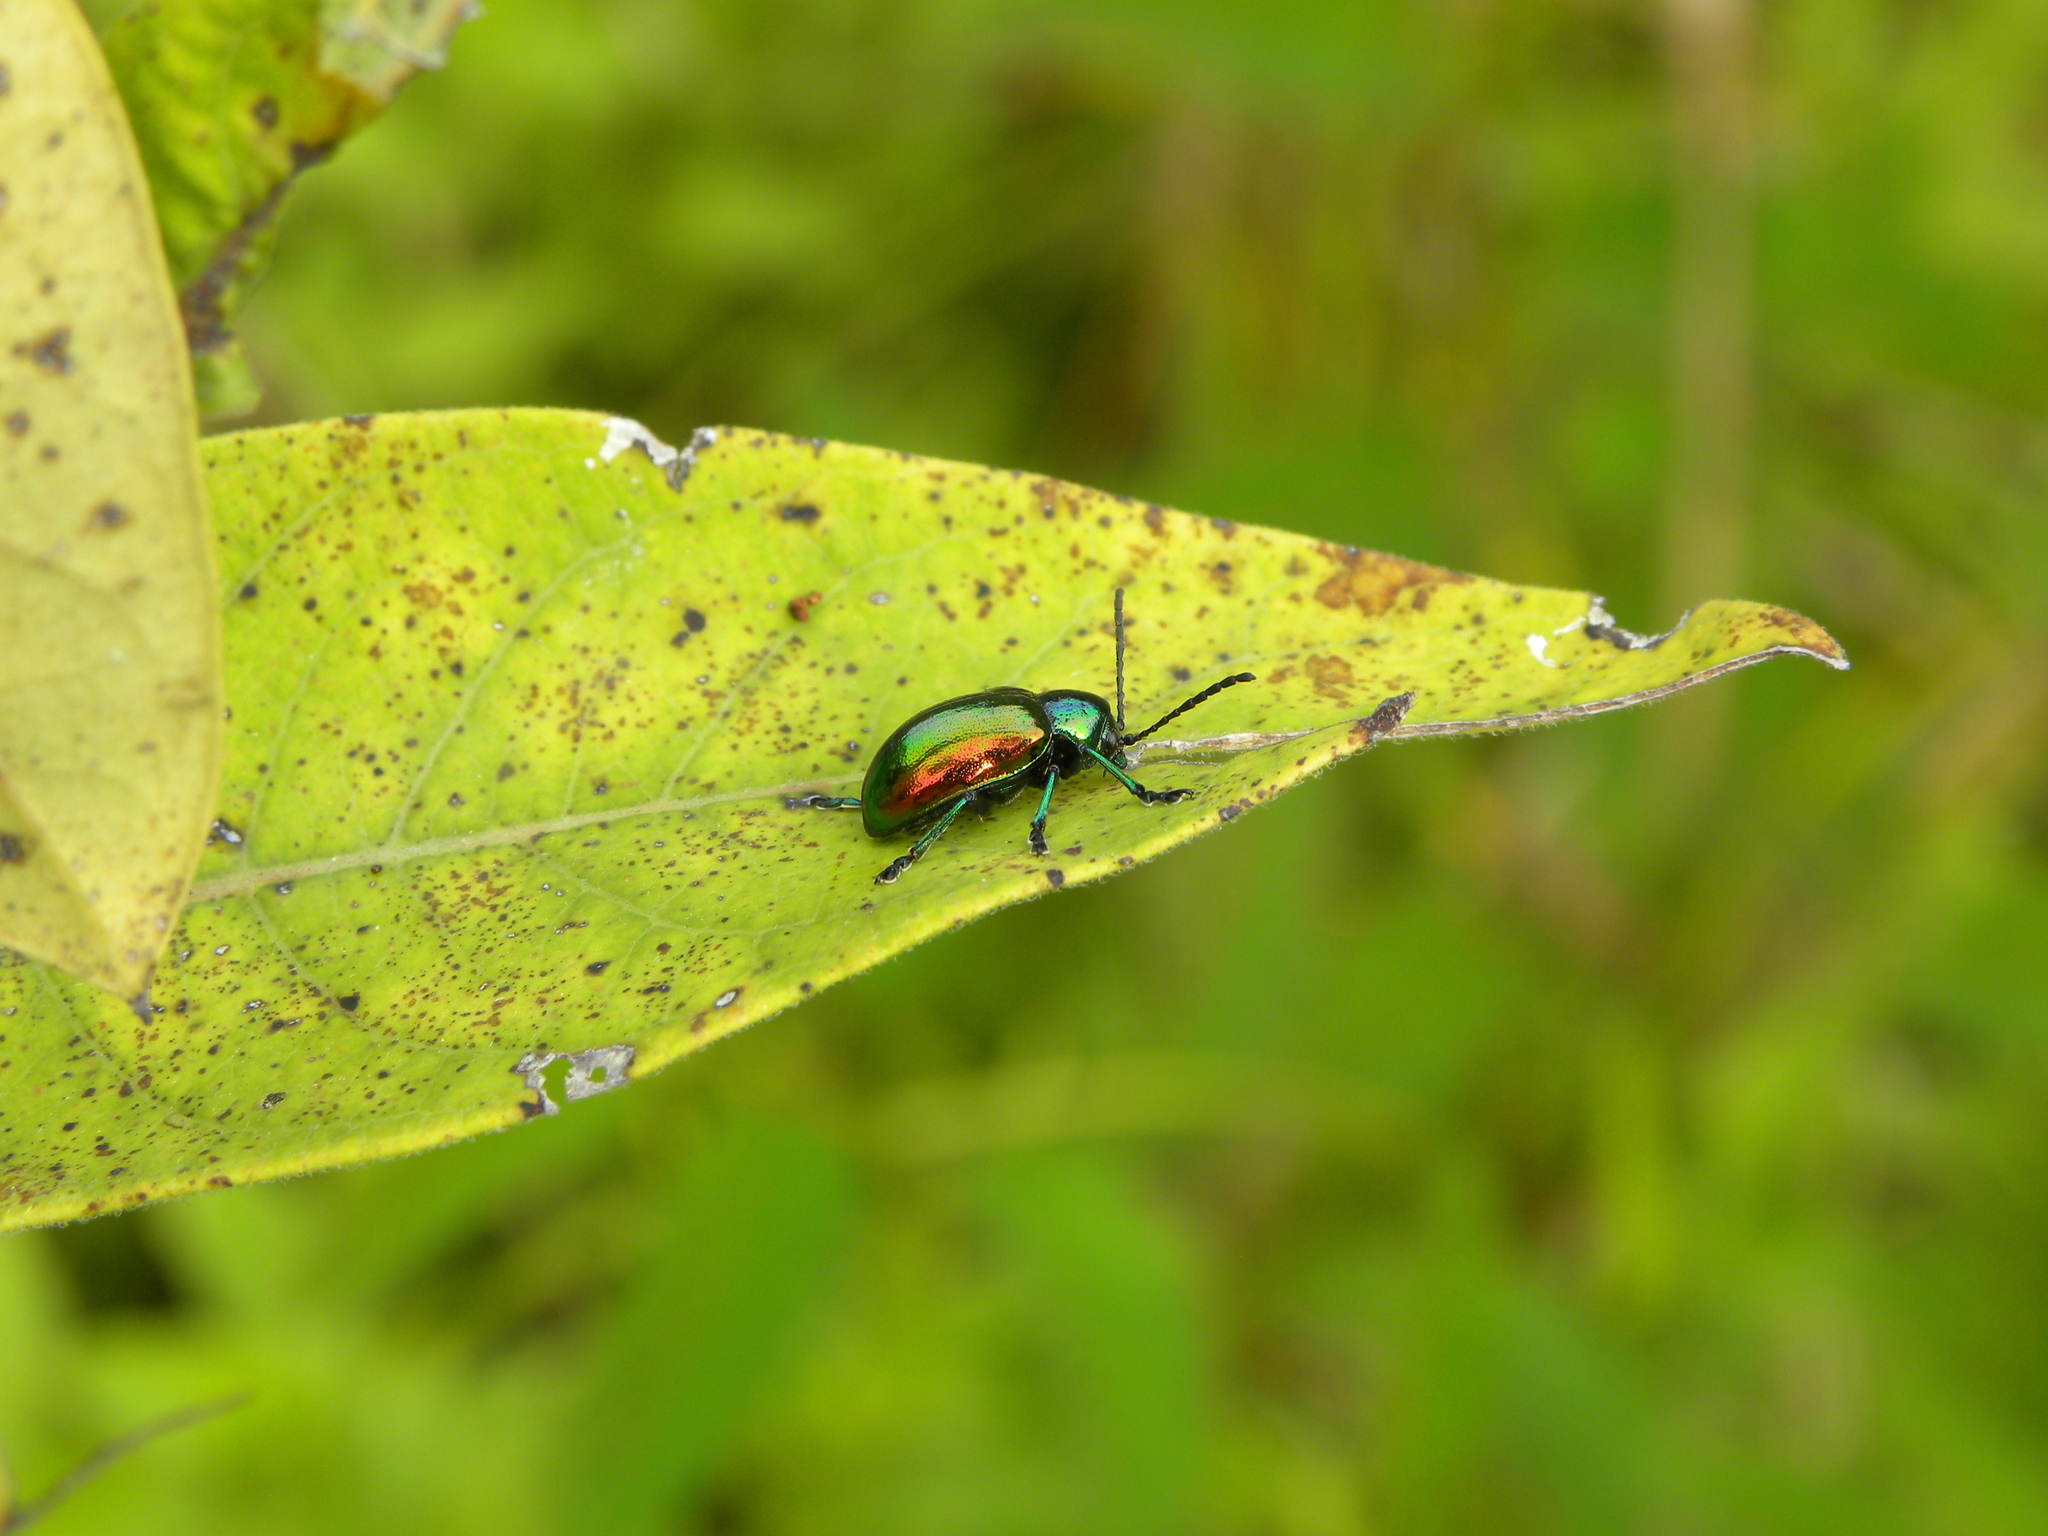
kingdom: Animalia
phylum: Arthropoda
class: Insecta
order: Coleoptera
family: Chrysomelidae
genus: Chrysochus
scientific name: Chrysochus auratus
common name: Dogbane leaf beetle
